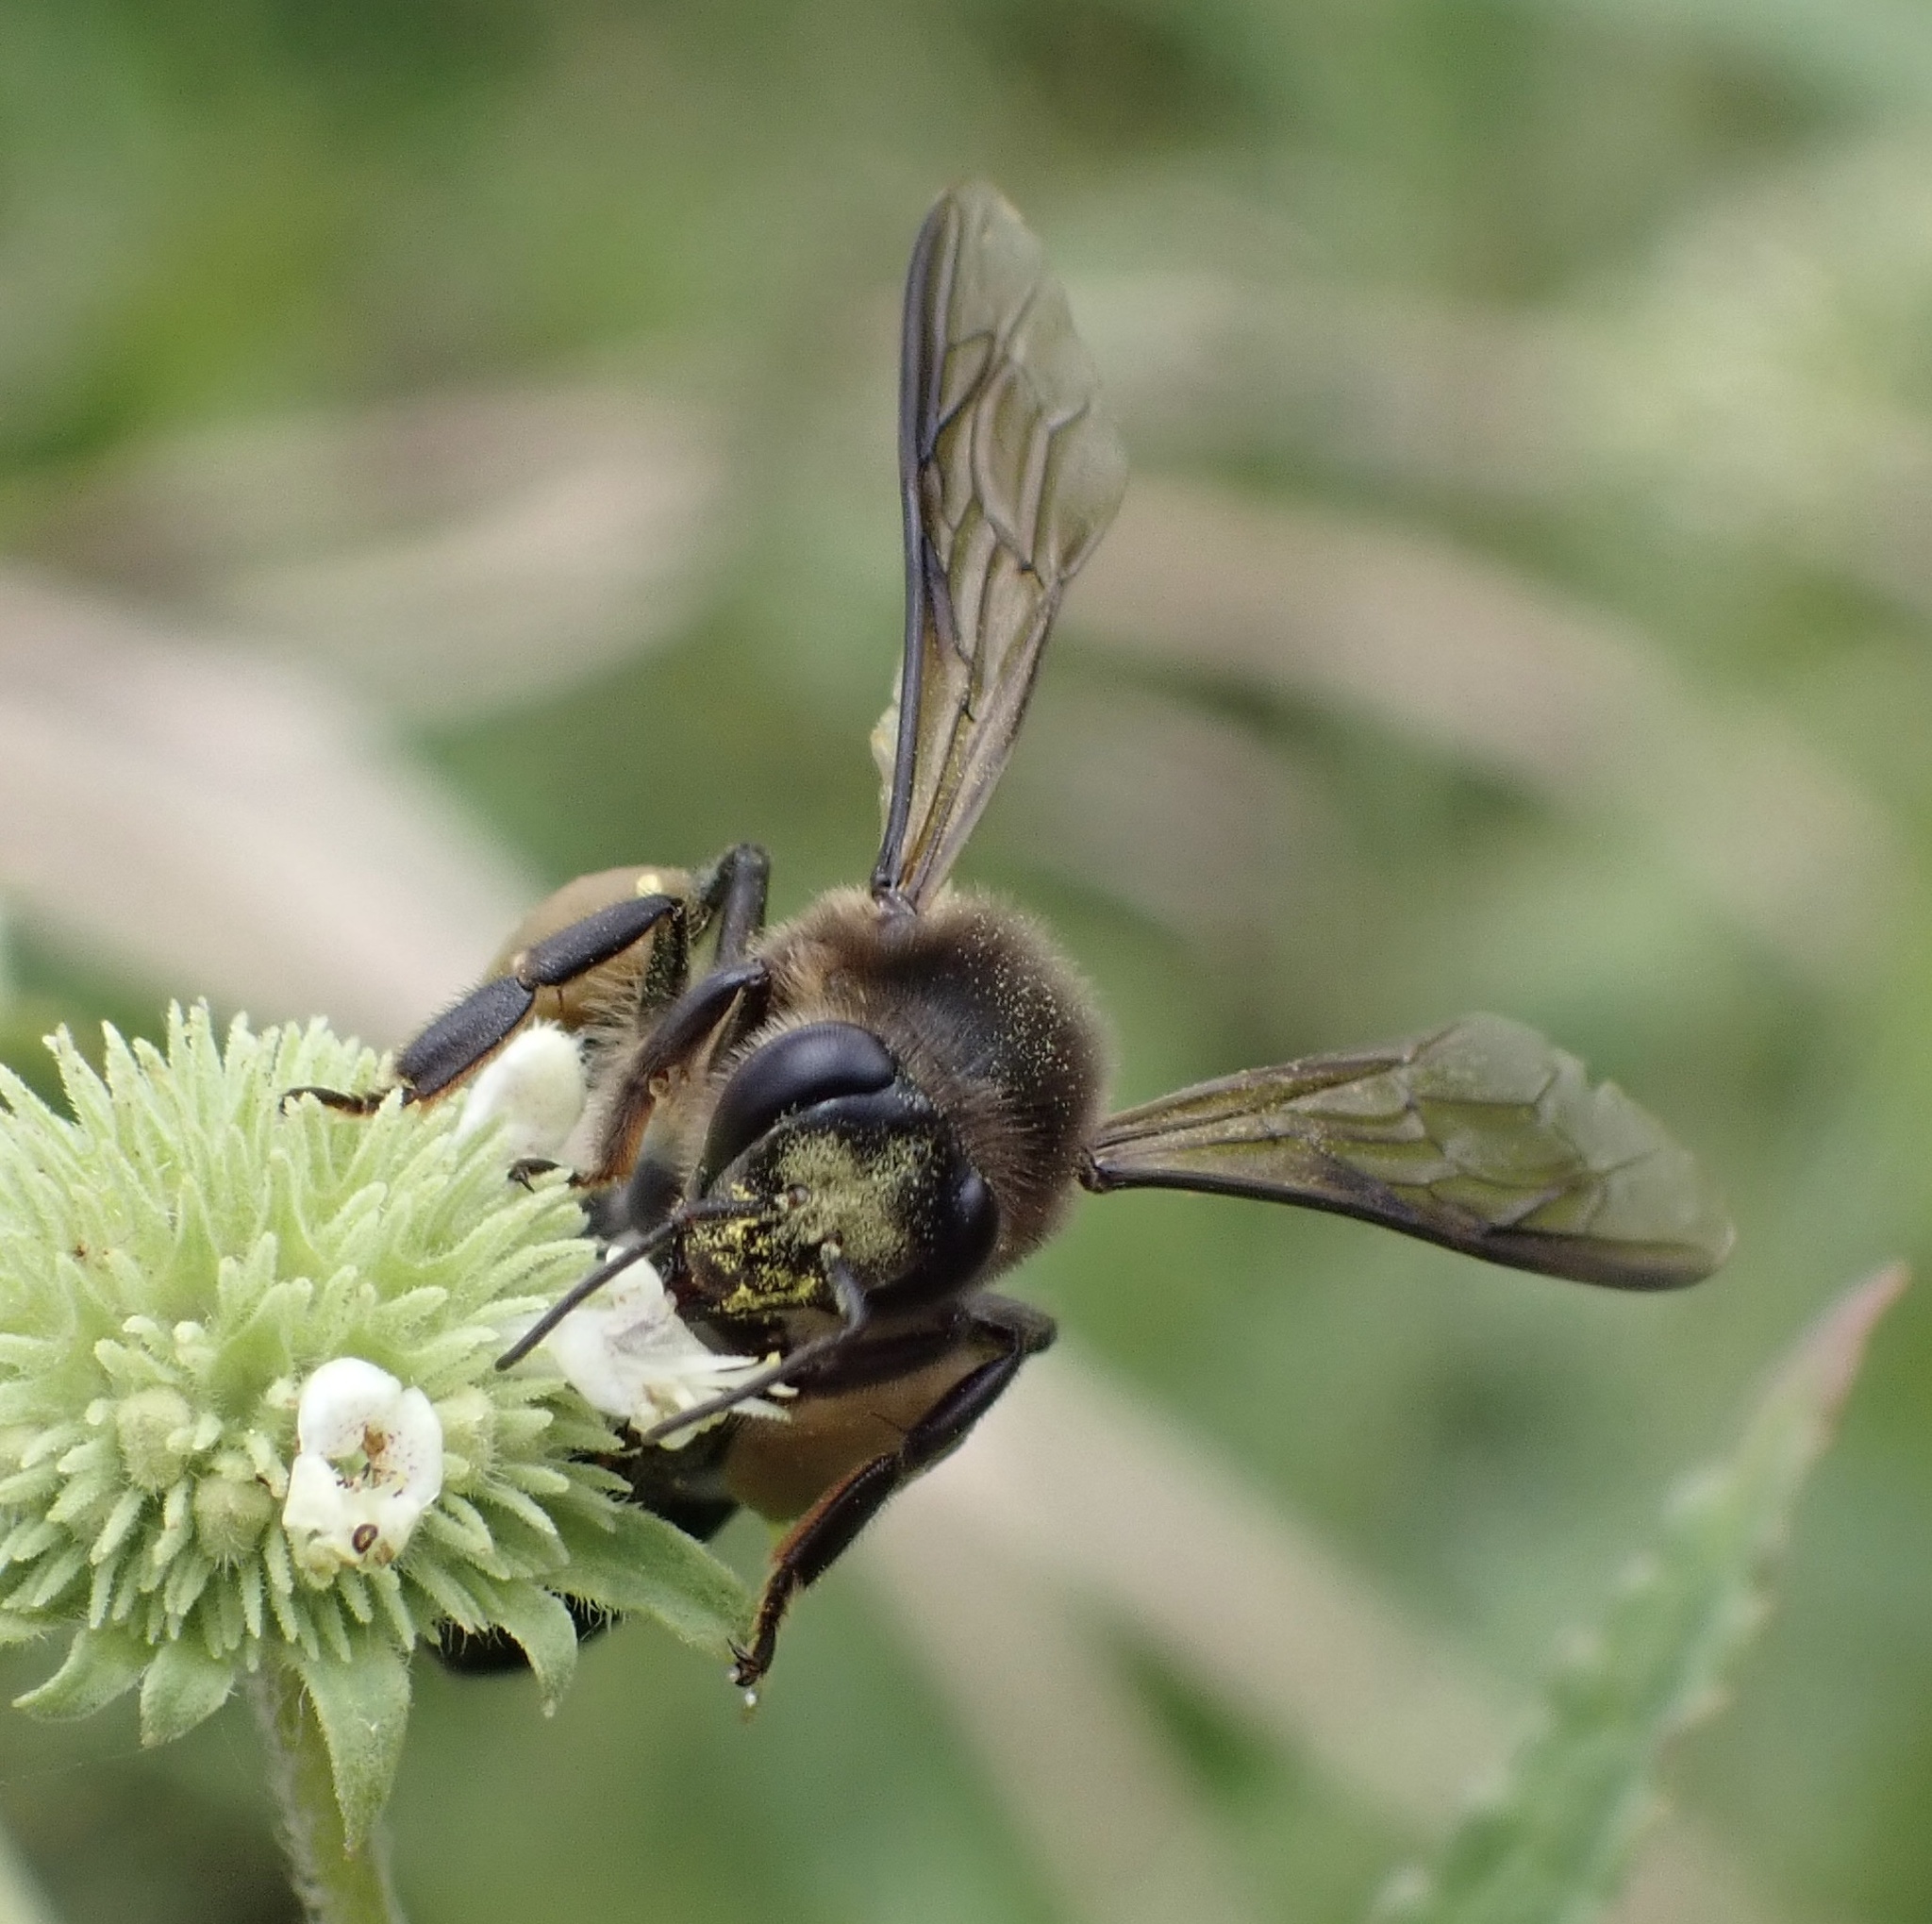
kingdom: Animalia
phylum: Arthropoda
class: Insecta
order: Hymenoptera
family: Apidae
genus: Apis
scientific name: Apis dorsata
